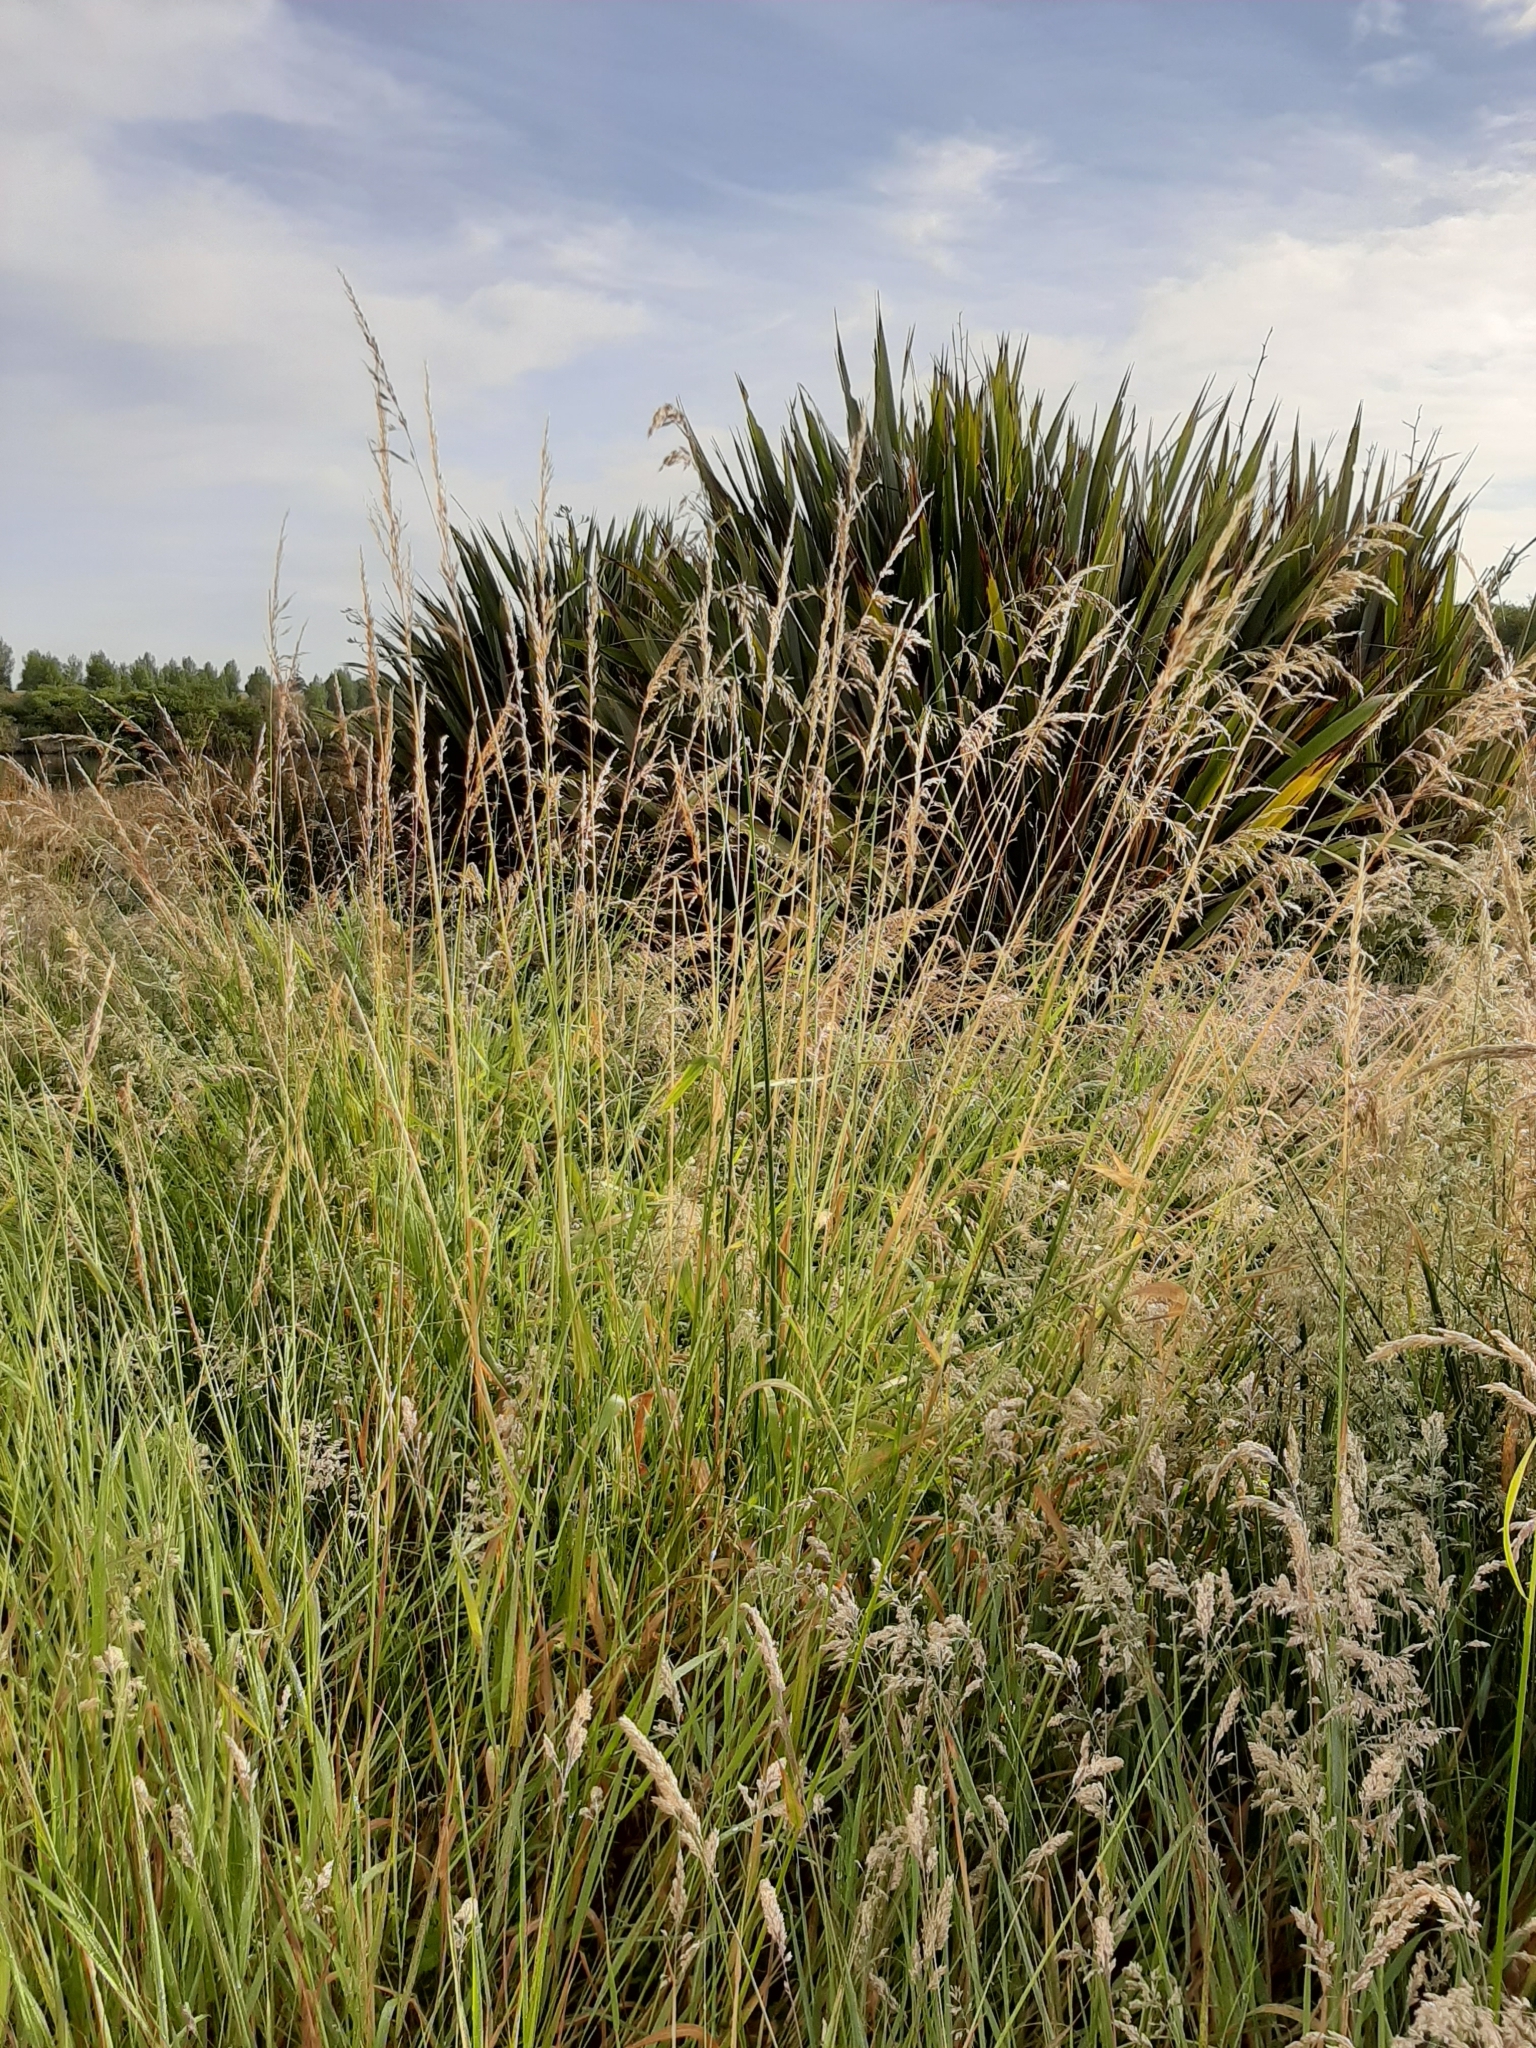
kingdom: Plantae
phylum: Tracheophyta
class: Liliopsida
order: Poales
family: Poaceae
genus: Arrhenatherum
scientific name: Arrhenatherum elatius
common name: Tall oatgrass
